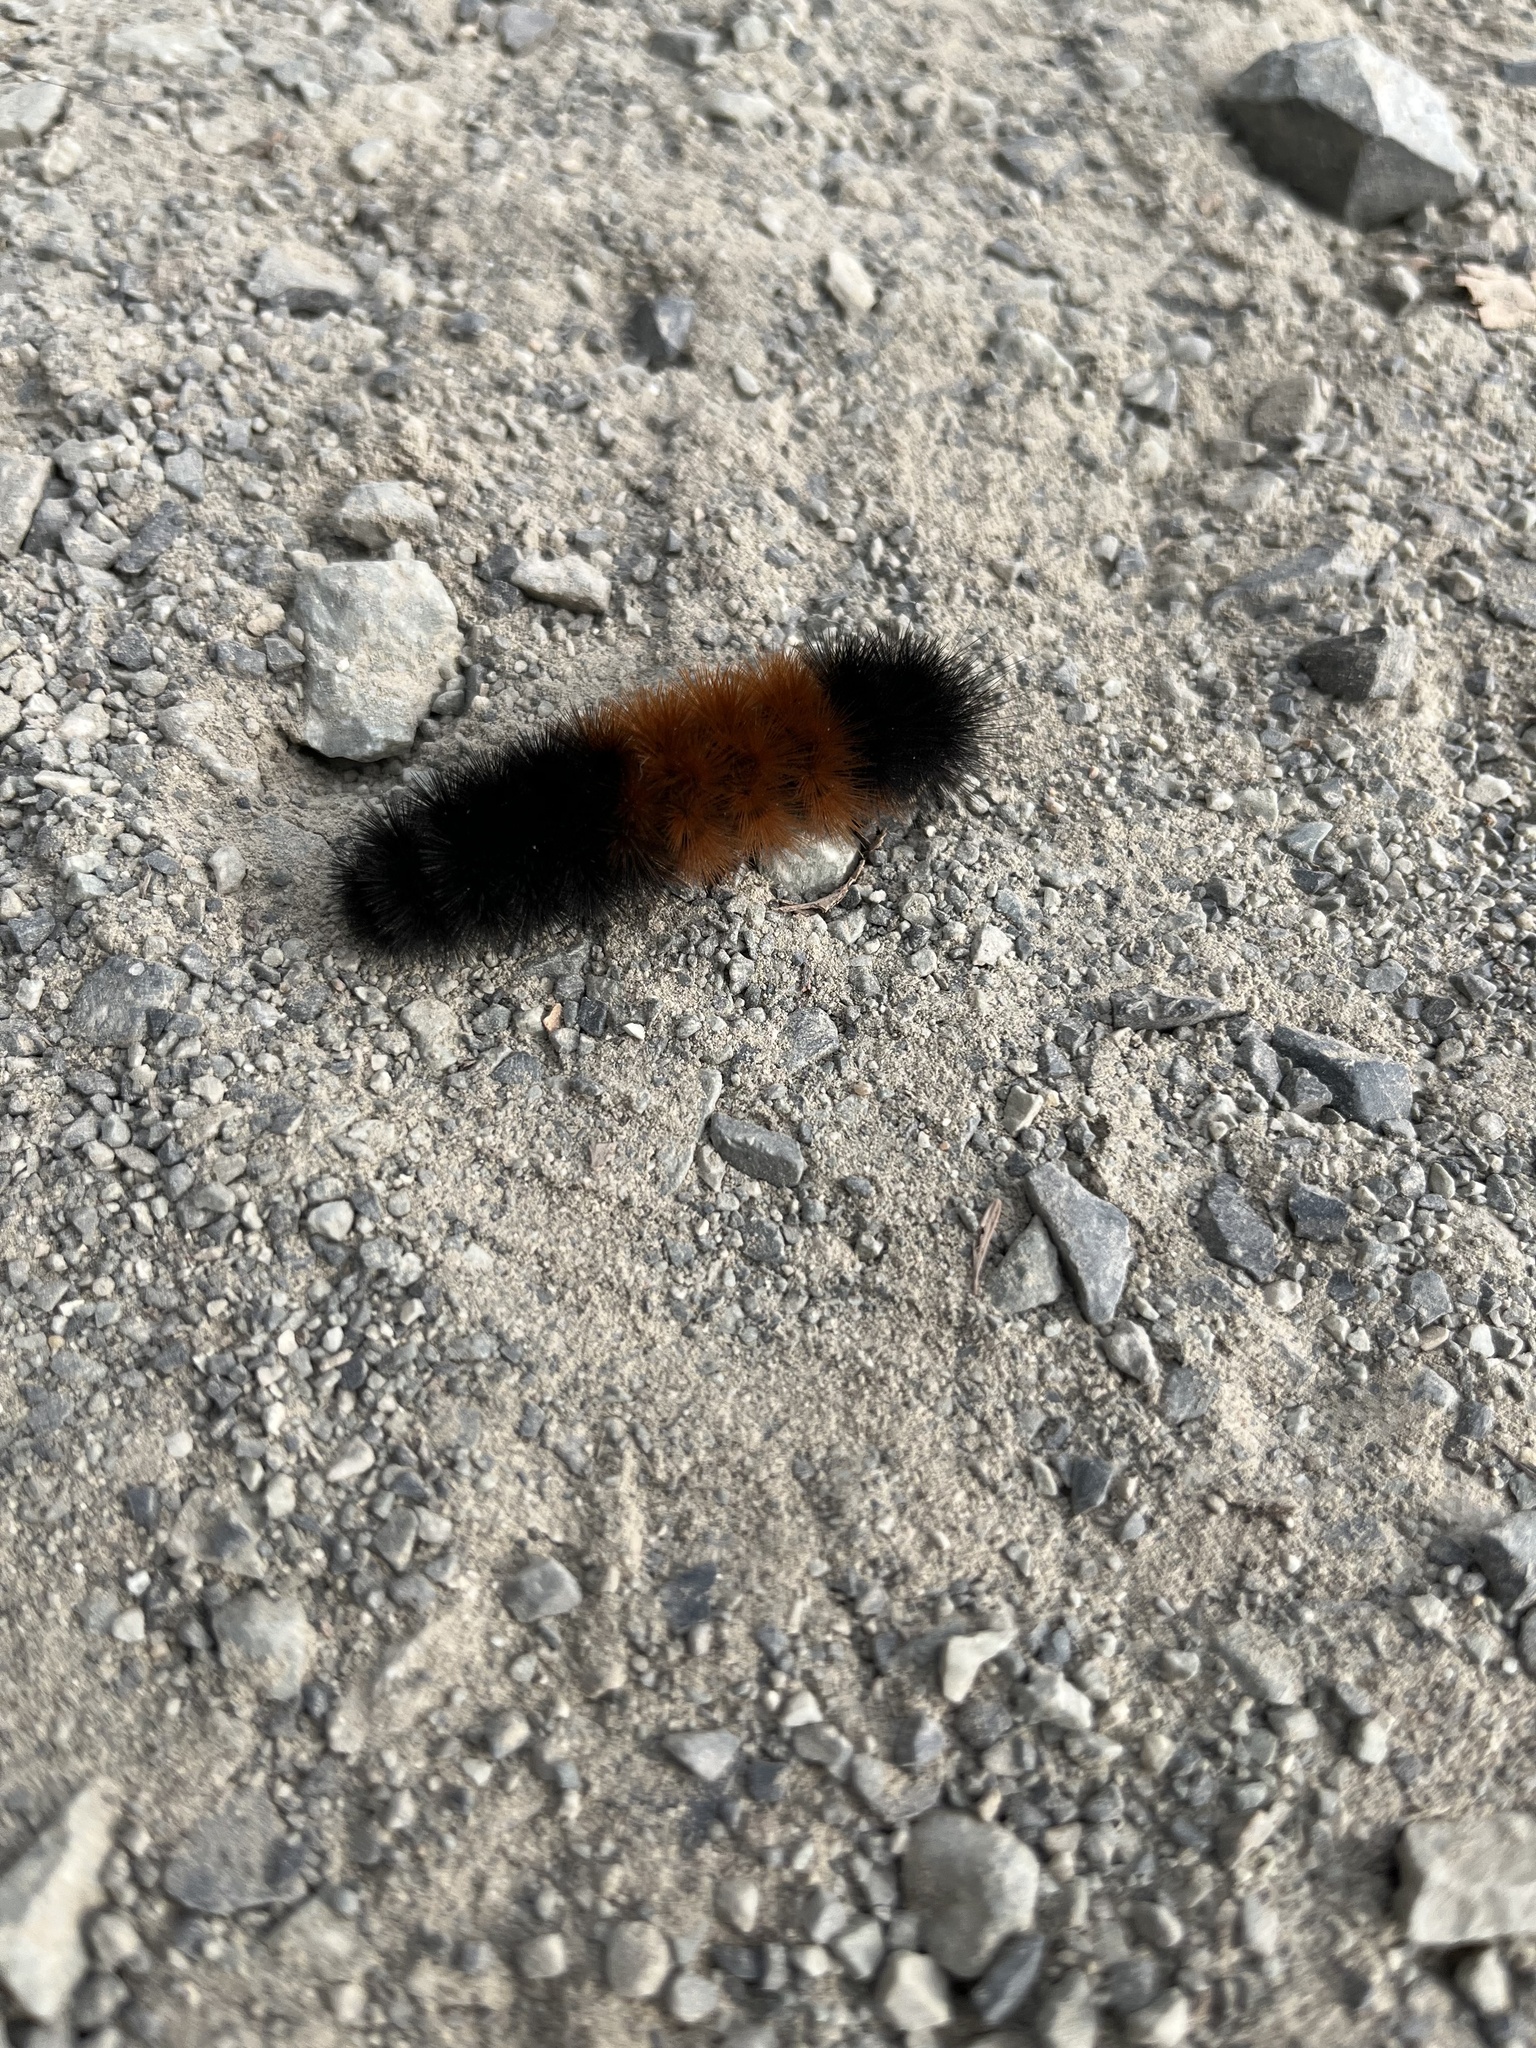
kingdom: Animalia
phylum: Arthropoda
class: Insecta
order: Lepidoptera
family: Erebidae
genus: Pyrrharctia
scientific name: Pyrrharctia isabella
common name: Isabella tiger moth
